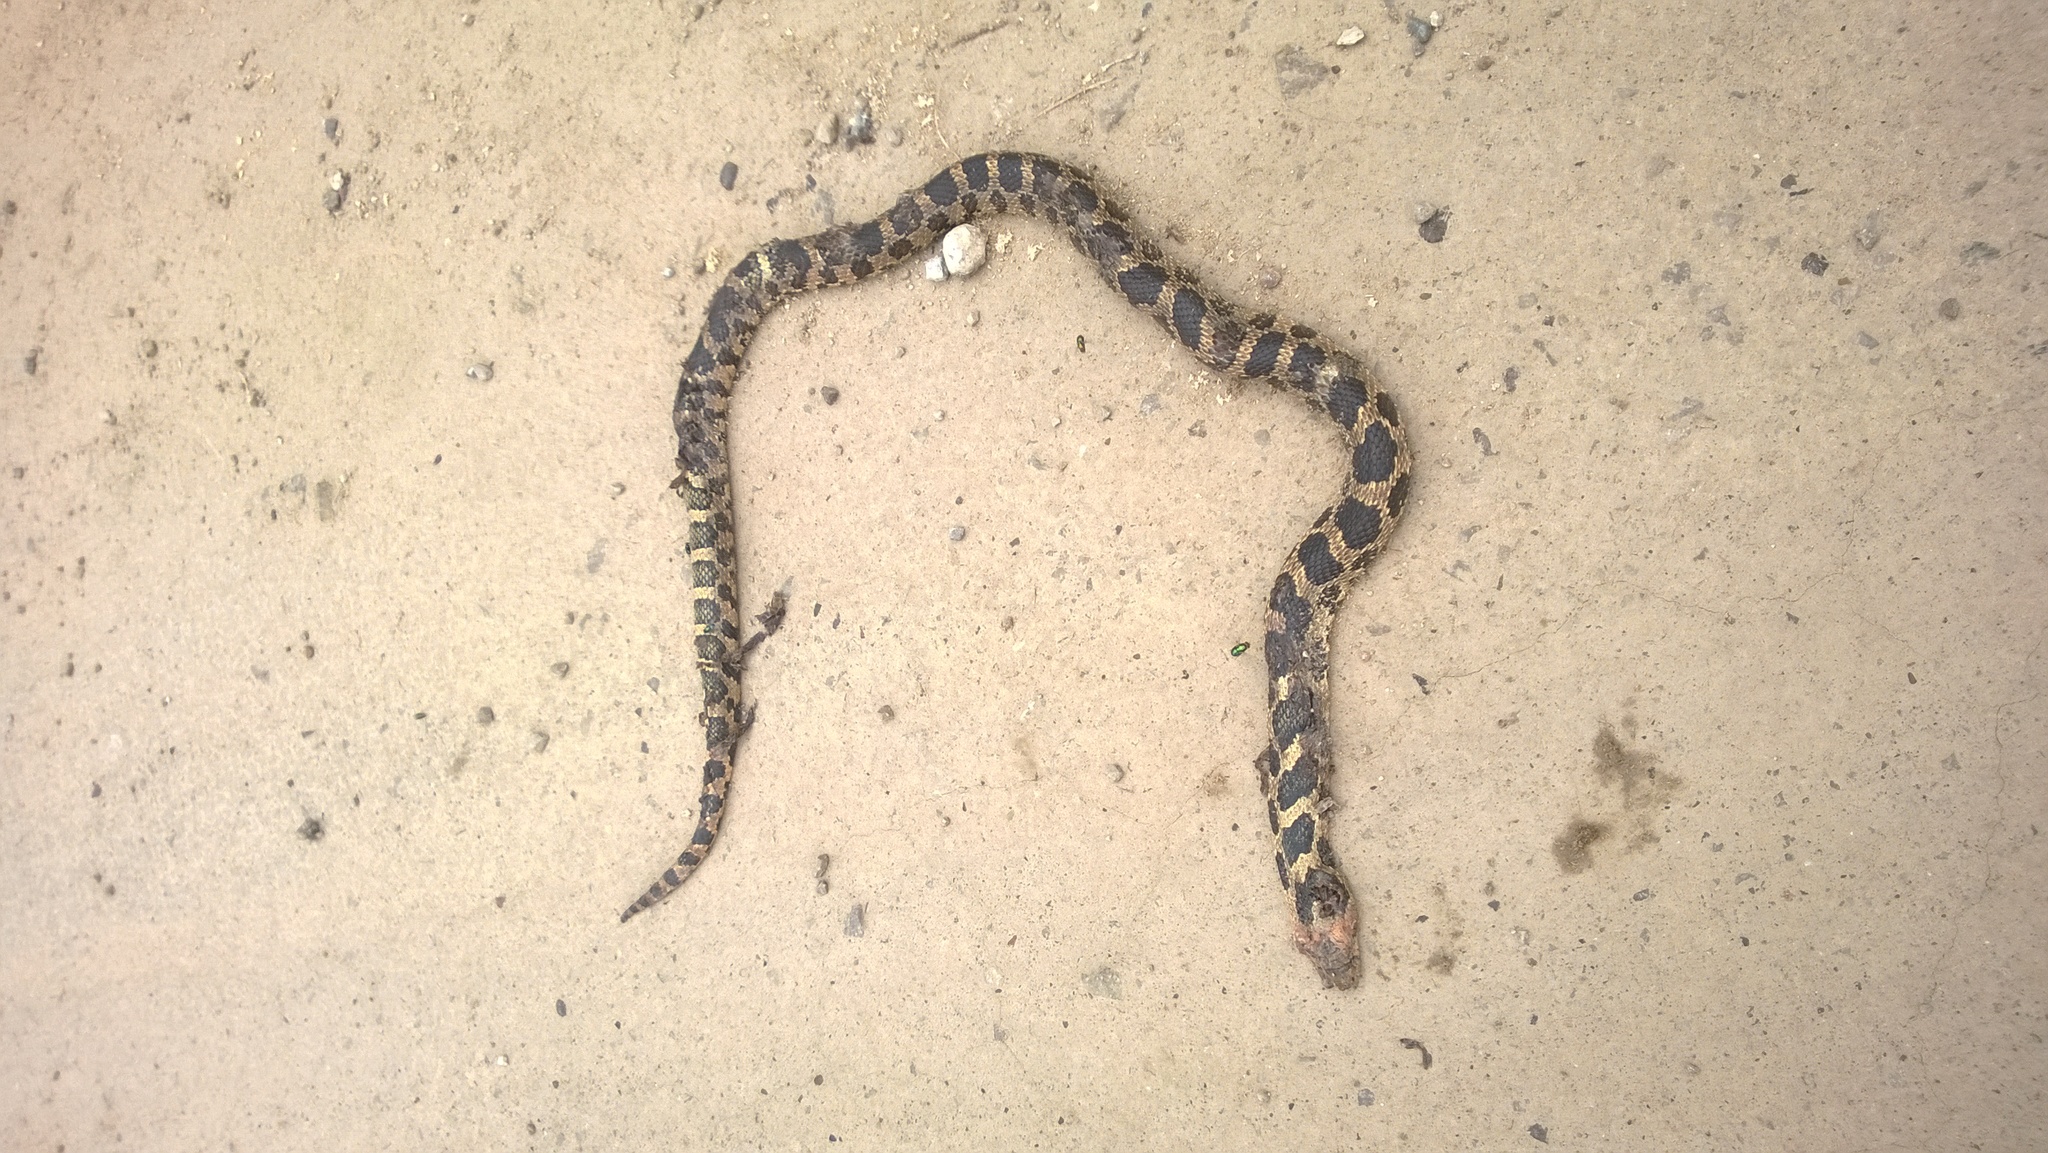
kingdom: Animalia
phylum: Chordata
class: Squamata
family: Colubridae
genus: Pantherophis
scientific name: Pantherophis vulpinus
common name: Eastern fox snake
